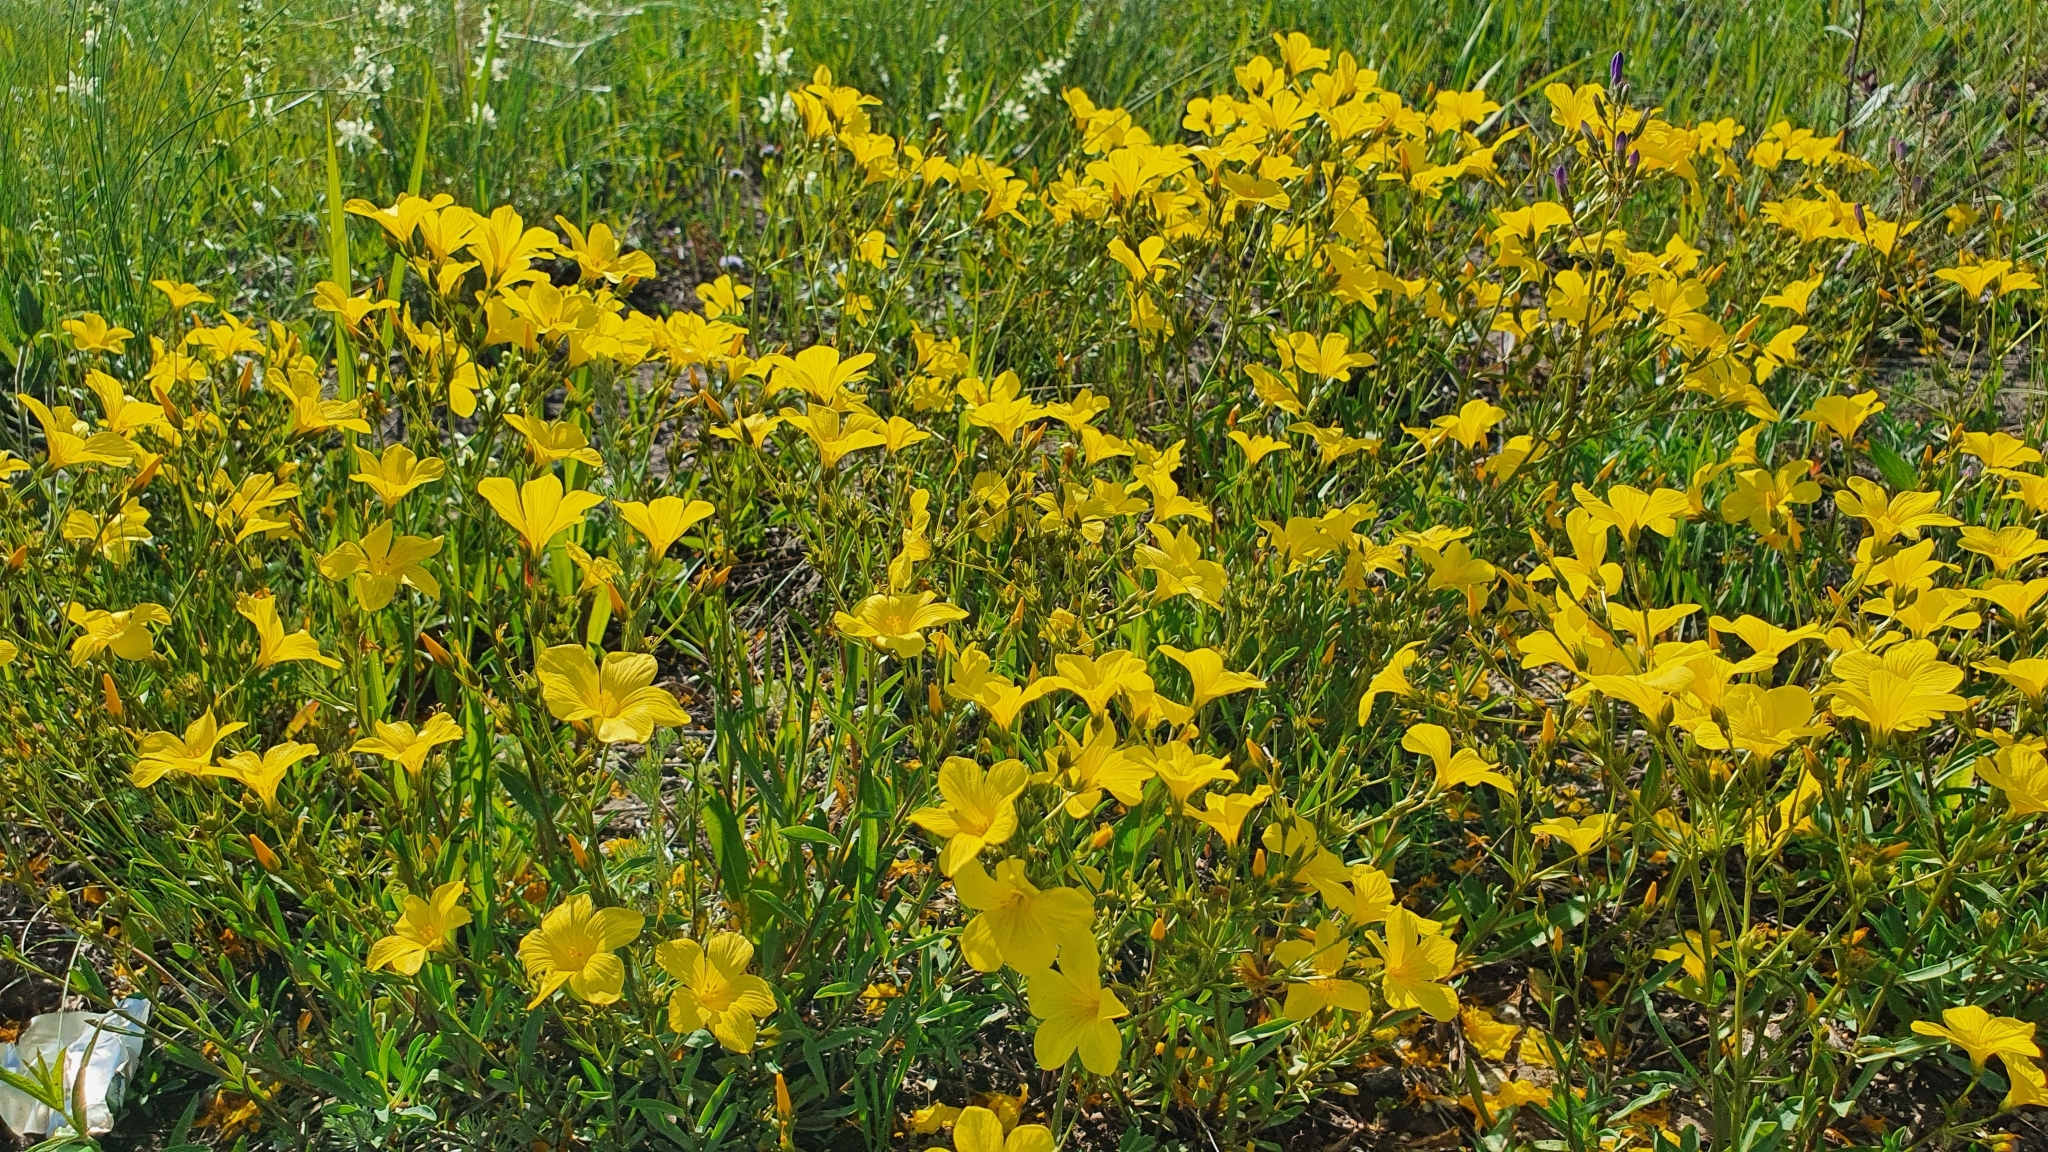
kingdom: Plantae
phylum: Tracheophyta
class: Magnoliopsida
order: Malpighiales
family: Linaceae
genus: Linum
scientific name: Linum ucranicum
